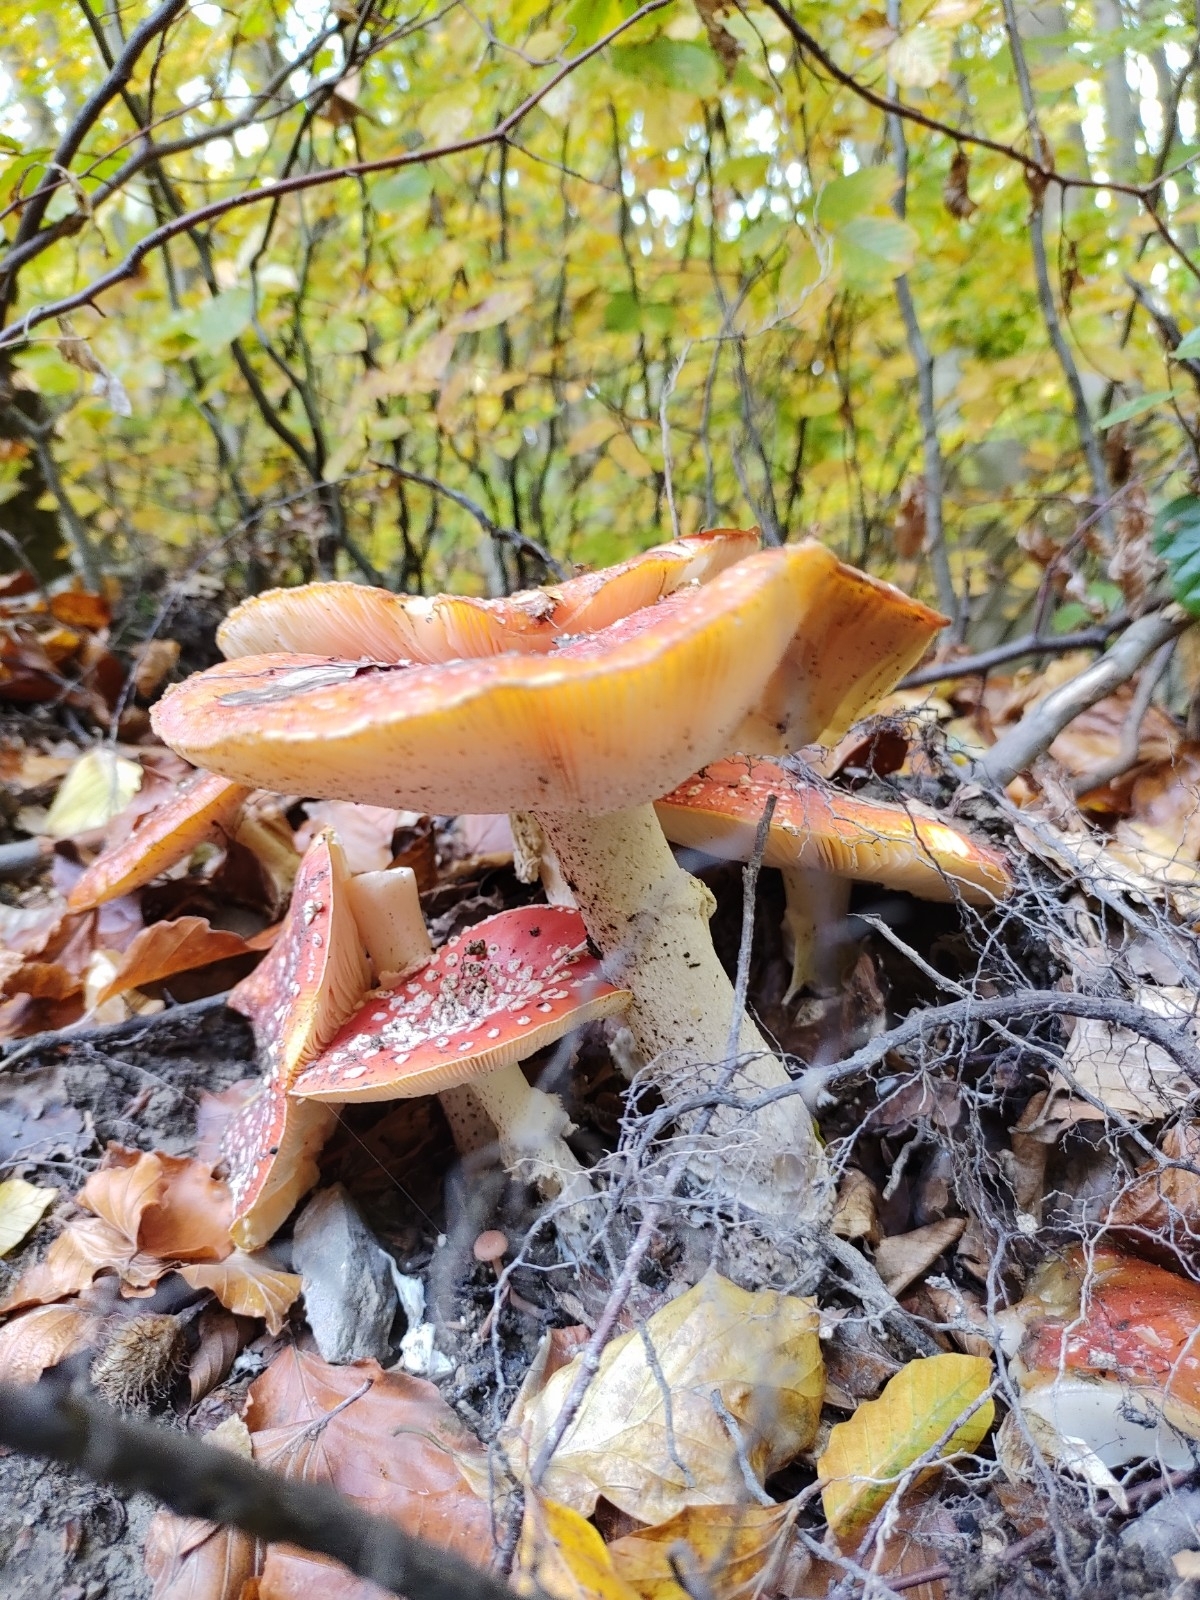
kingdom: Fungi
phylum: Basidiomycota
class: Agaricomycetes
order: Agaricales
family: Amanitaceae
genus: Amanita
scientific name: Amanita muscaria
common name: Fly agaric
